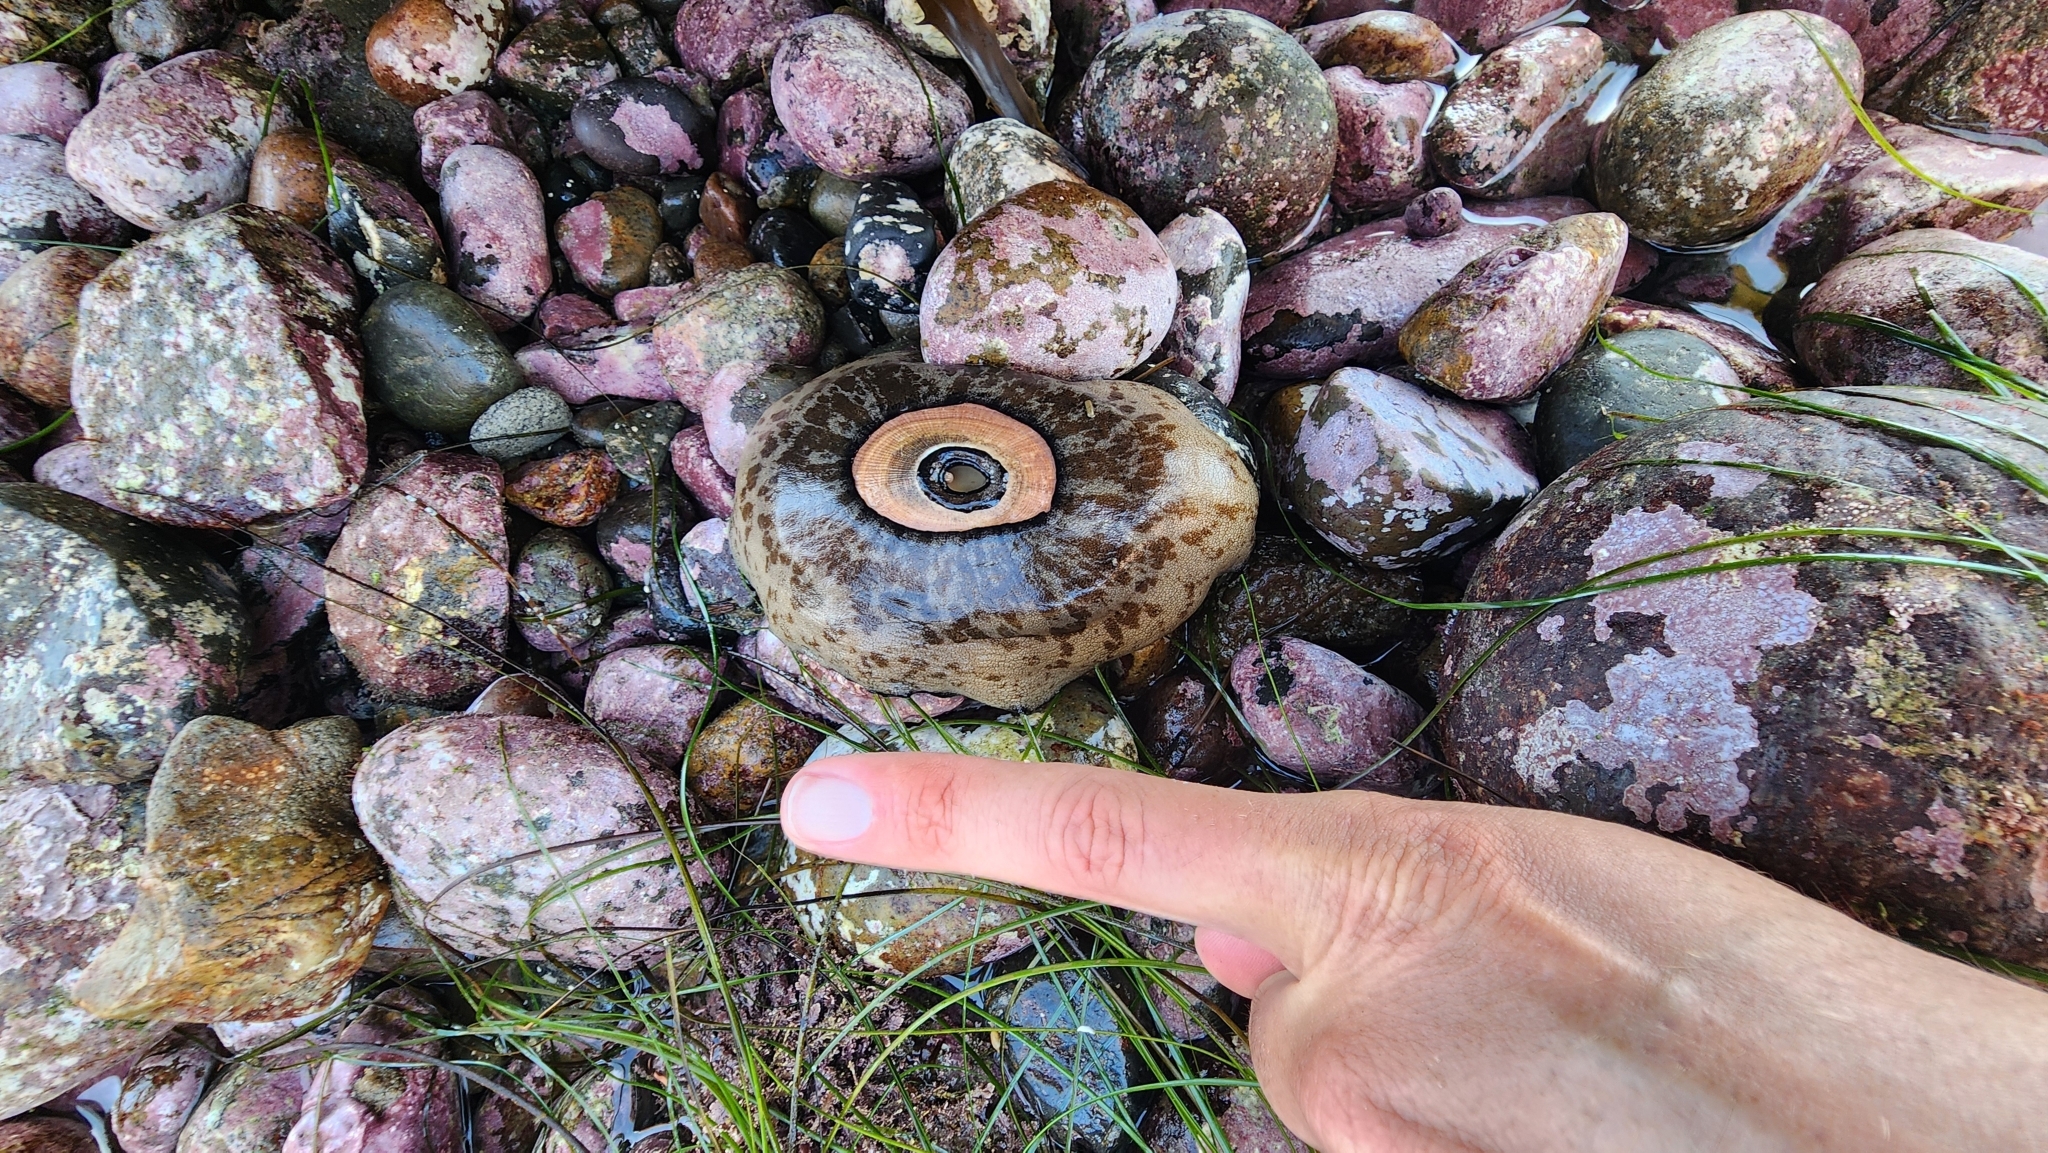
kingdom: Animalia
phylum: Mollusca
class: Gastropoda
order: Lepetellida
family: Fissurellidae
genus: Megathura
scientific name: Megathura crenulata
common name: Giant keyhole limpet
